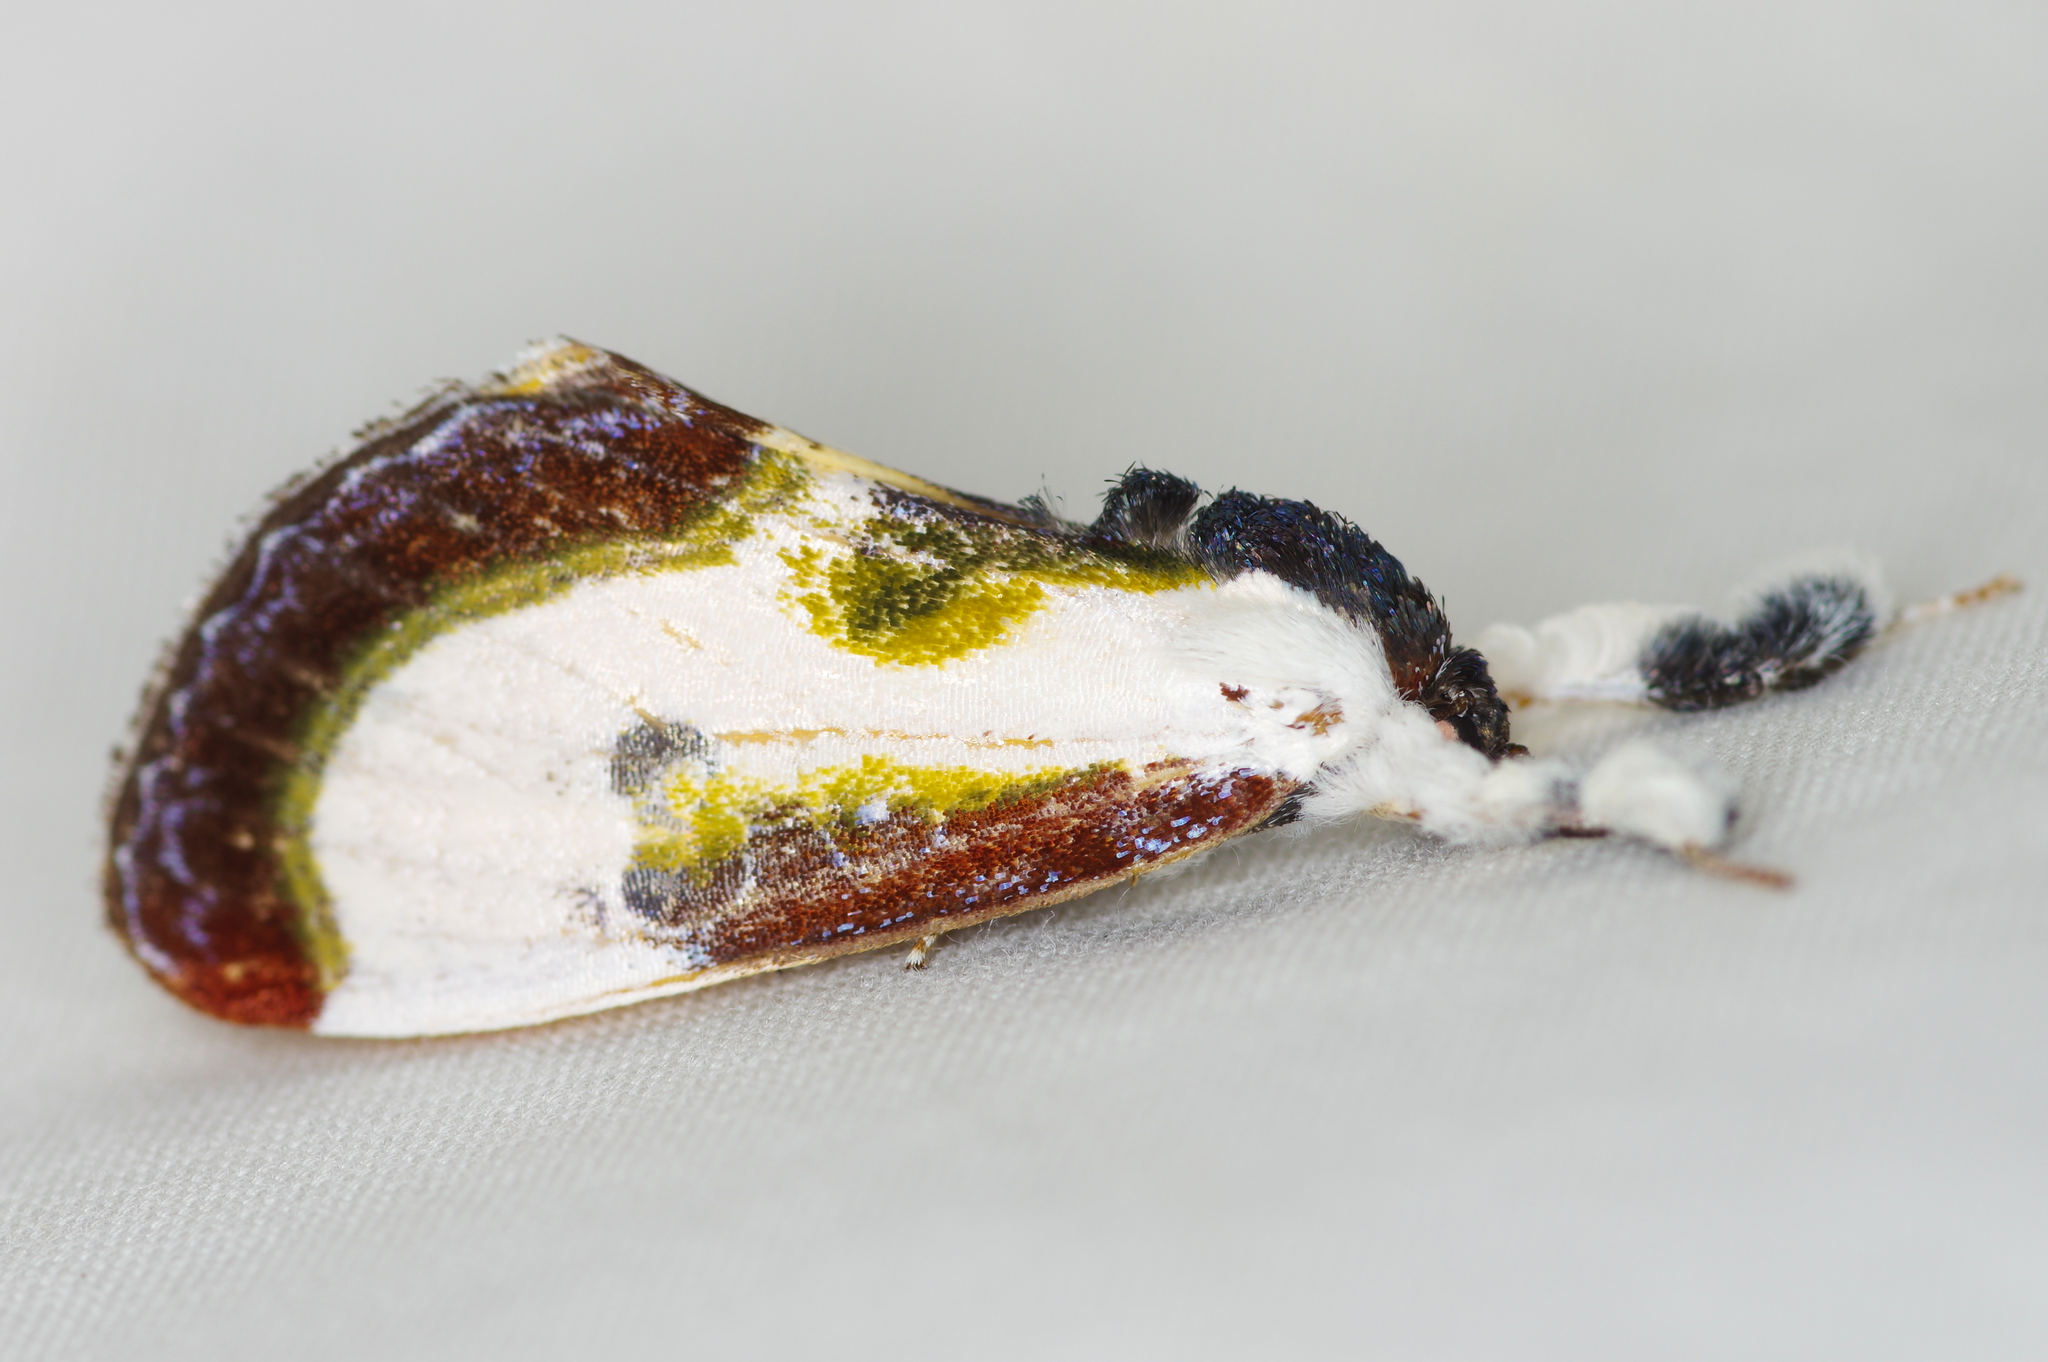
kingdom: Animalia
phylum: Arthropoda
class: Insecta
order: Lepidoptera
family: Noctuidae
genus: Eudryas
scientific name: Eudryas grata
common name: Beautiful wood-nymph
